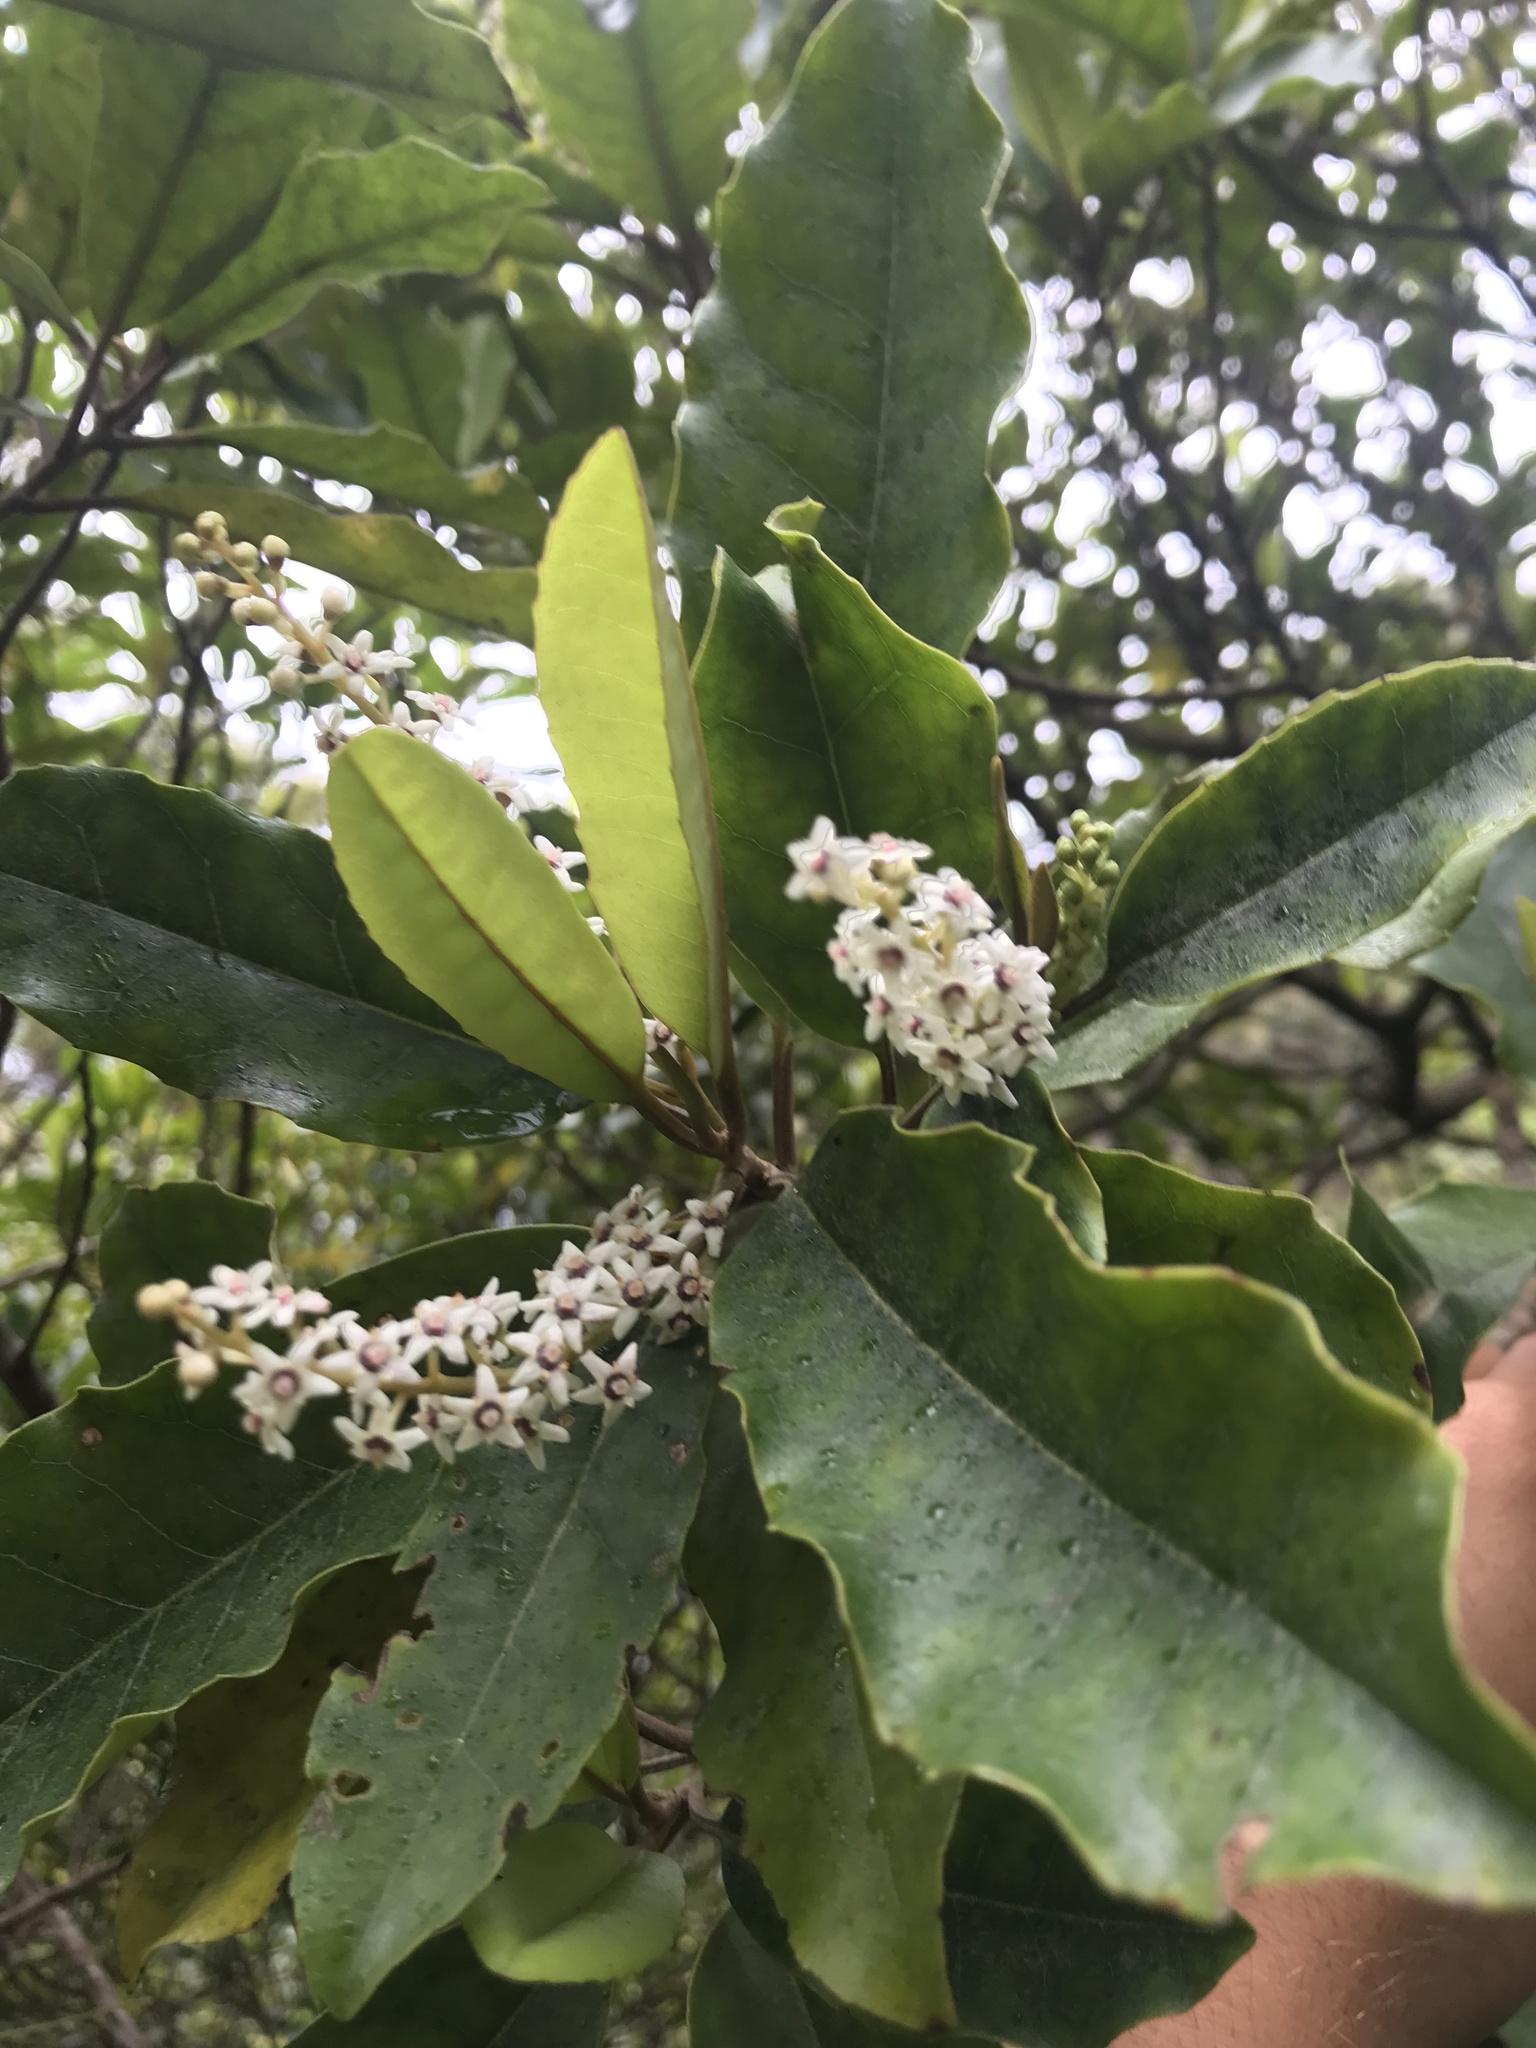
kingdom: Plantae
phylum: Tracheophyta
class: Magnoliopsida
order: Paracryphiales
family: Paracryphiaceae
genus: Quintinia
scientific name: Quintinia serrata
